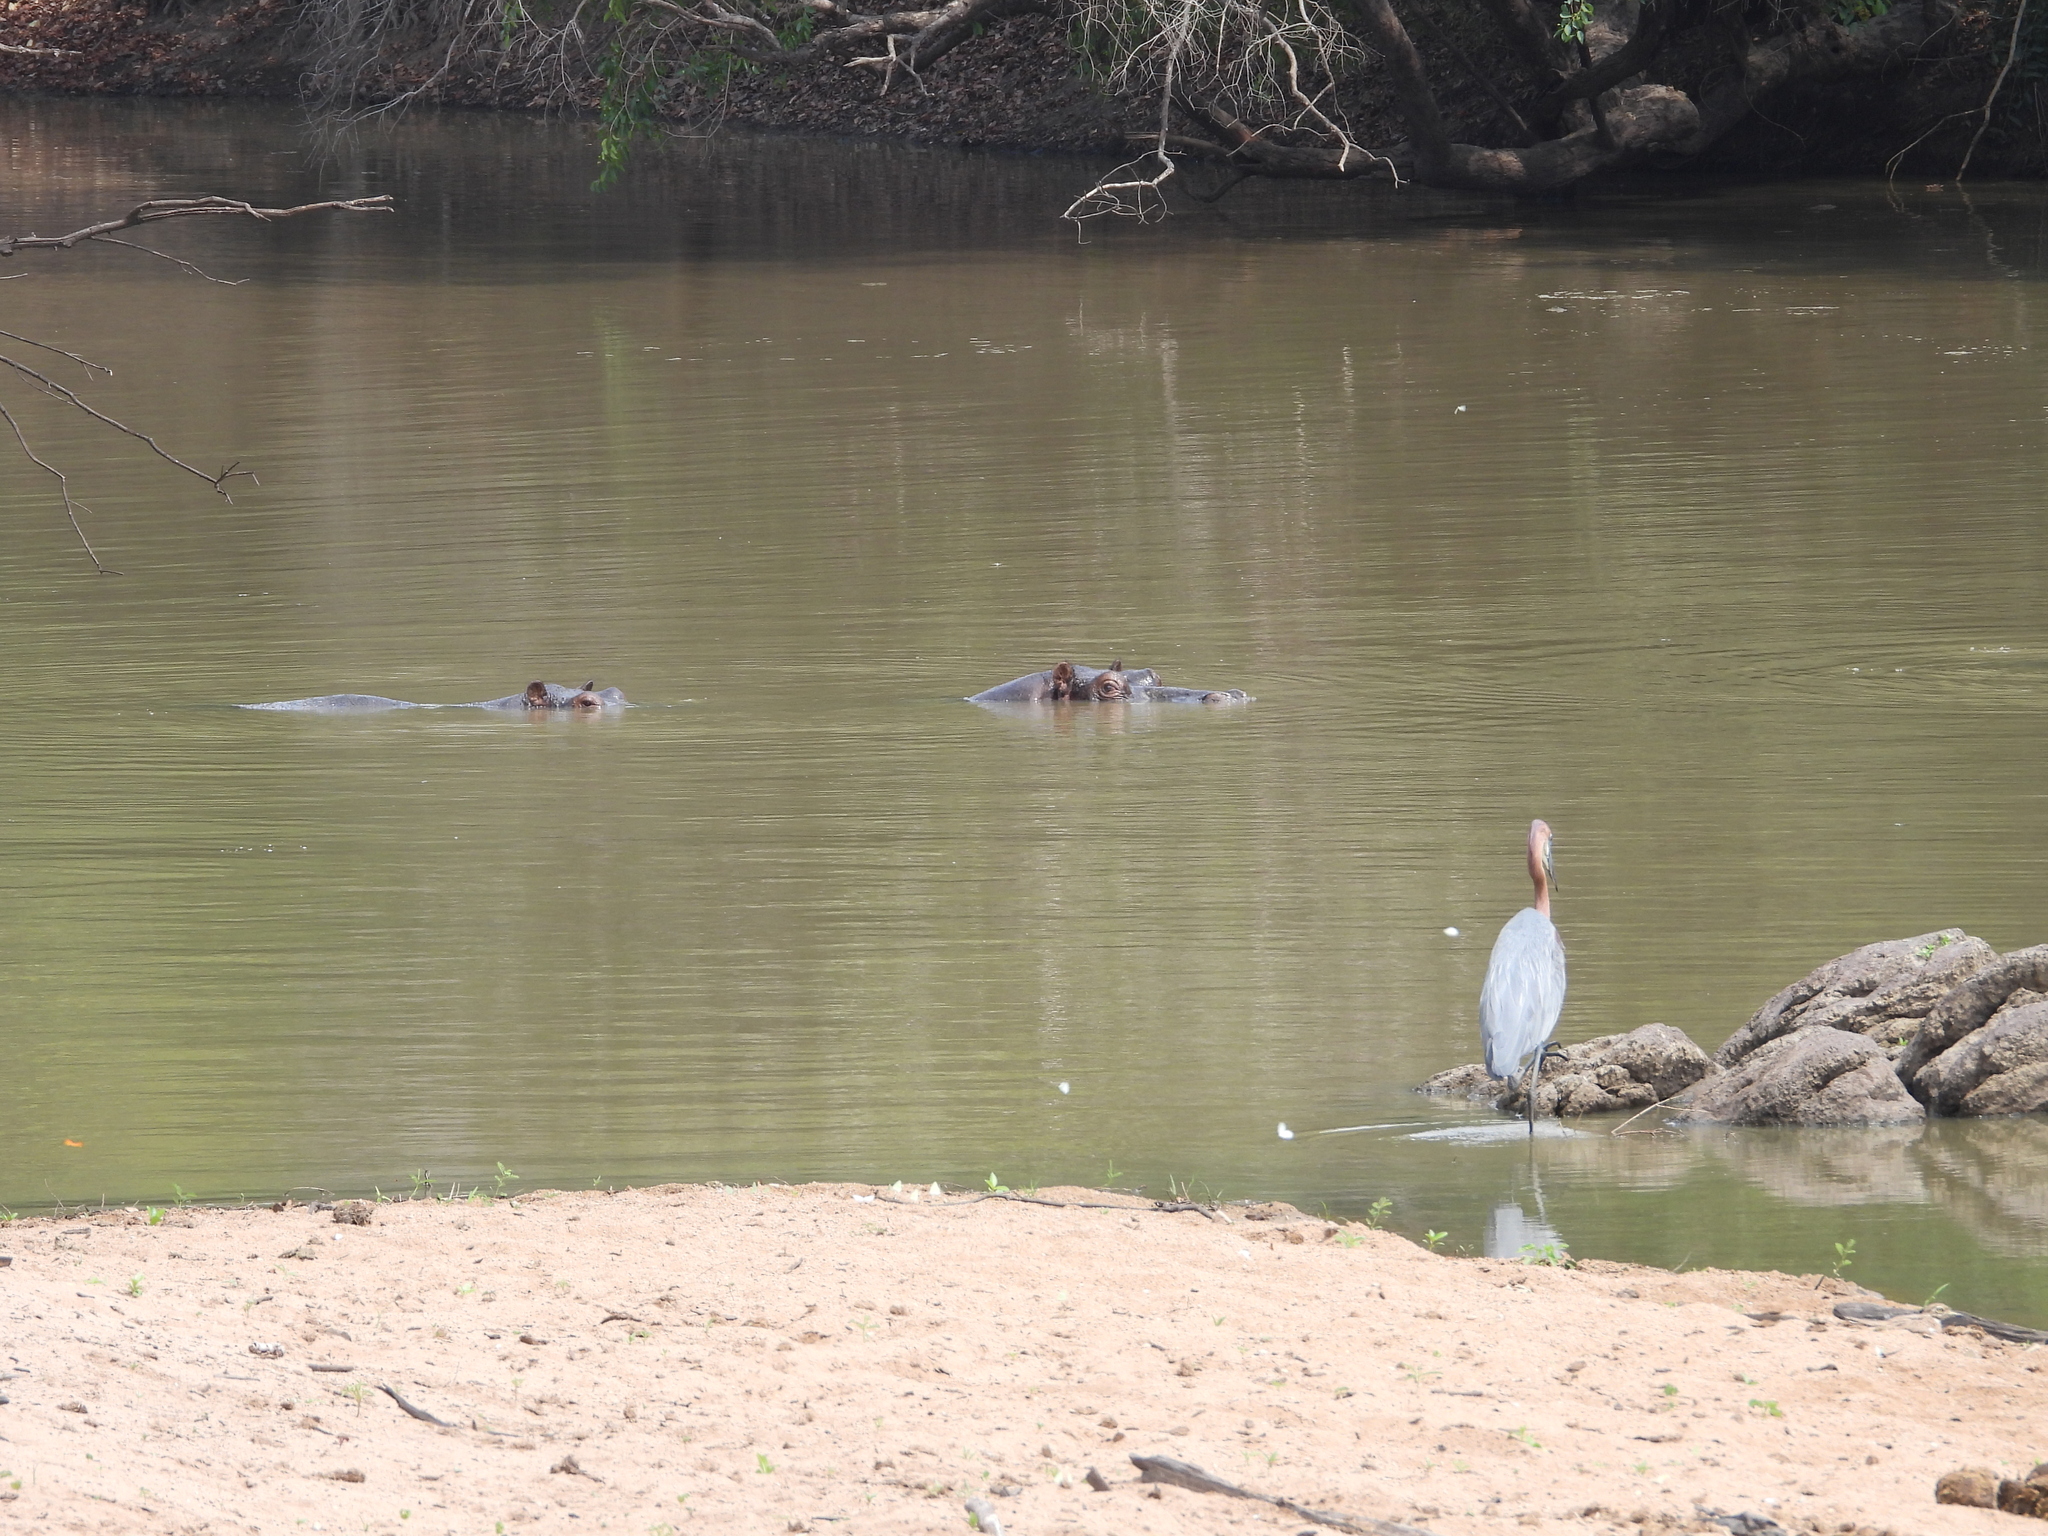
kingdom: Animalia
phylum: Chordata
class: Mammalia
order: Artiodactyla
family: Hippopotamidae
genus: Hippopotamus
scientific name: Hippopotamus amphibius
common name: Common hippopotamus
